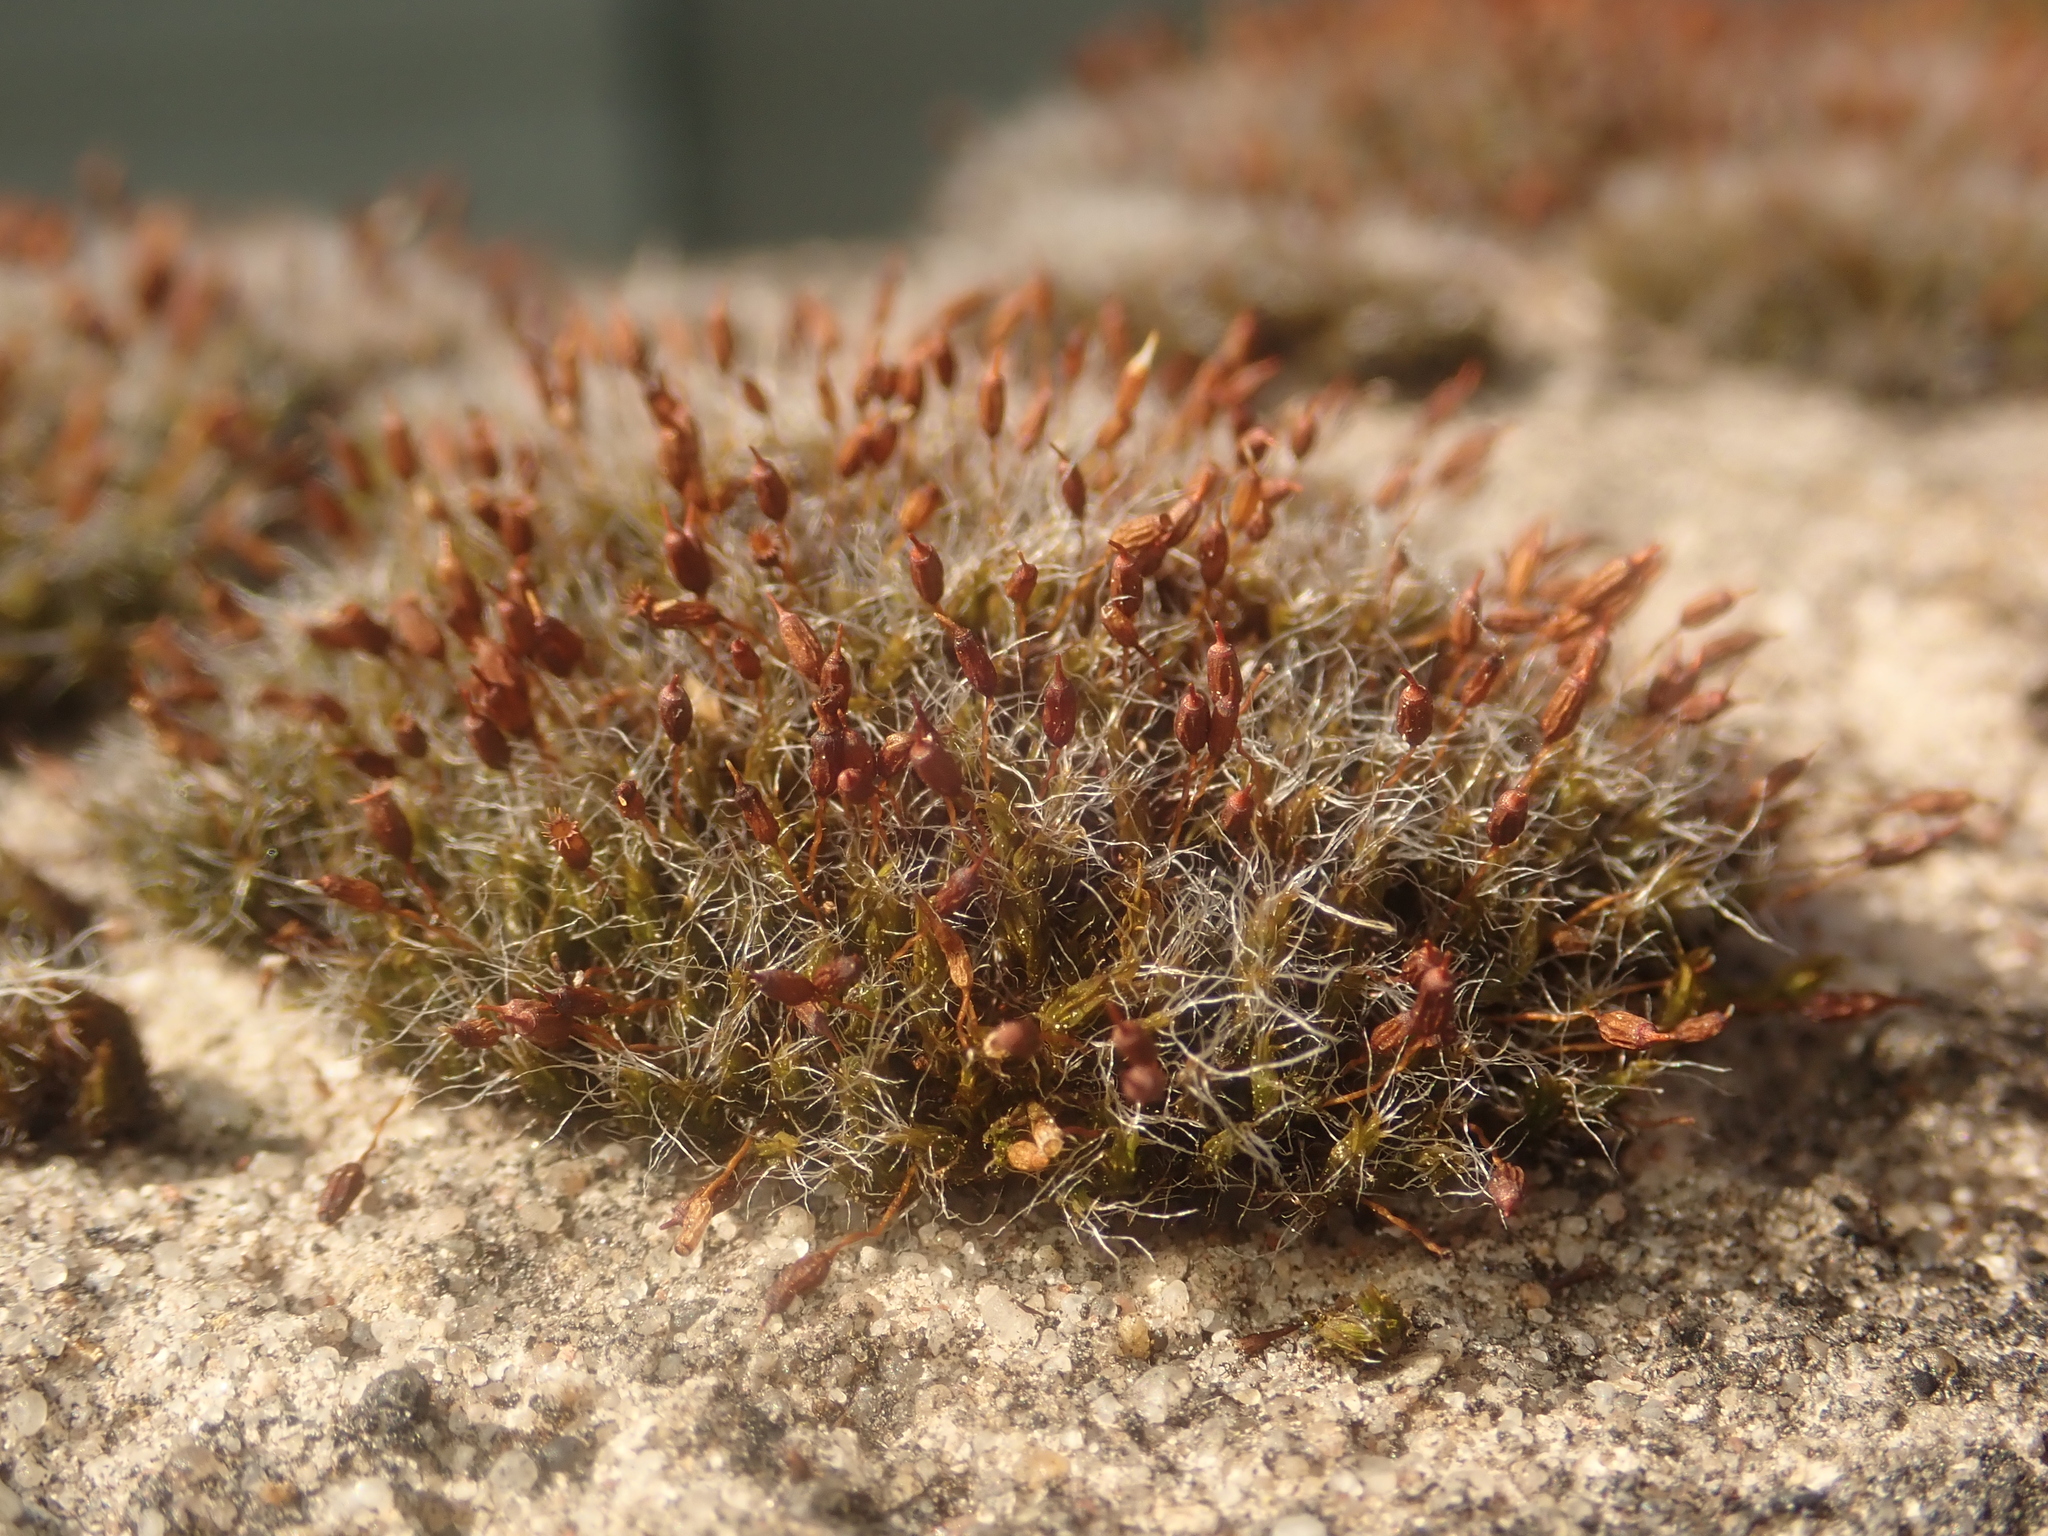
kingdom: Plantae
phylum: Bryophyta
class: Bryopsida
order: Grimmiales
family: Grimmiaceae
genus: Grimmia
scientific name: Grimmia pulvinata
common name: Grey-cushioned grimmia
